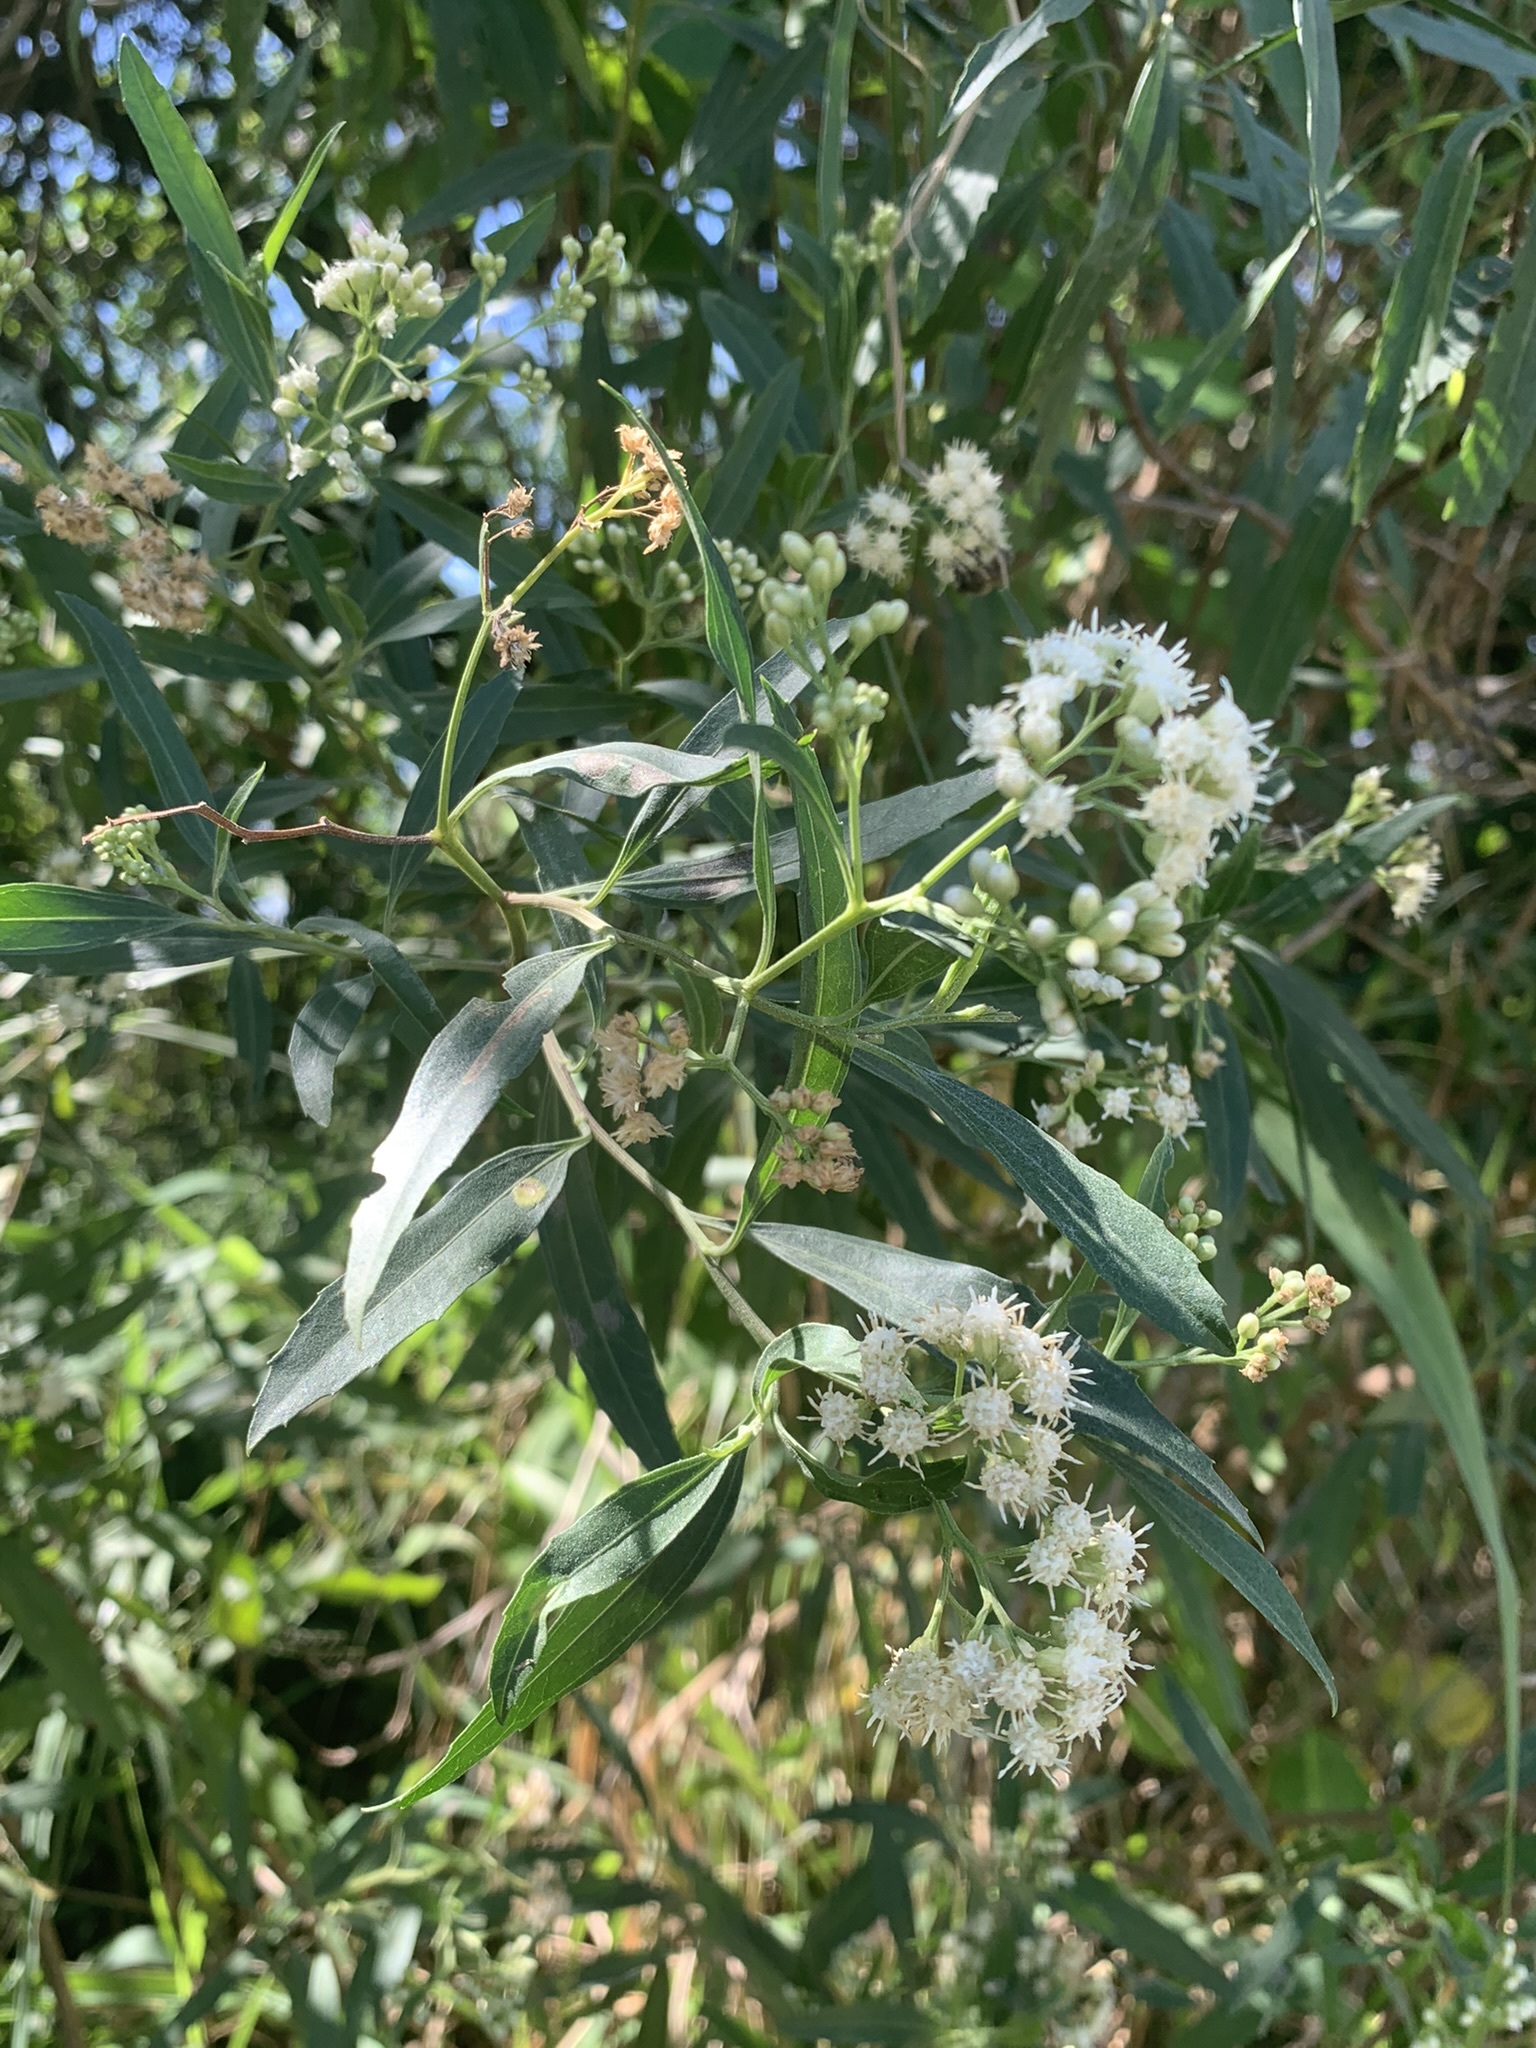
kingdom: Plantae
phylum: Tracheophyta
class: Magnoliopsida
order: Asterales
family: Asteraceae
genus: Baccharis
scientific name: Baccharis salicifolia
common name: Sticky baccharis
